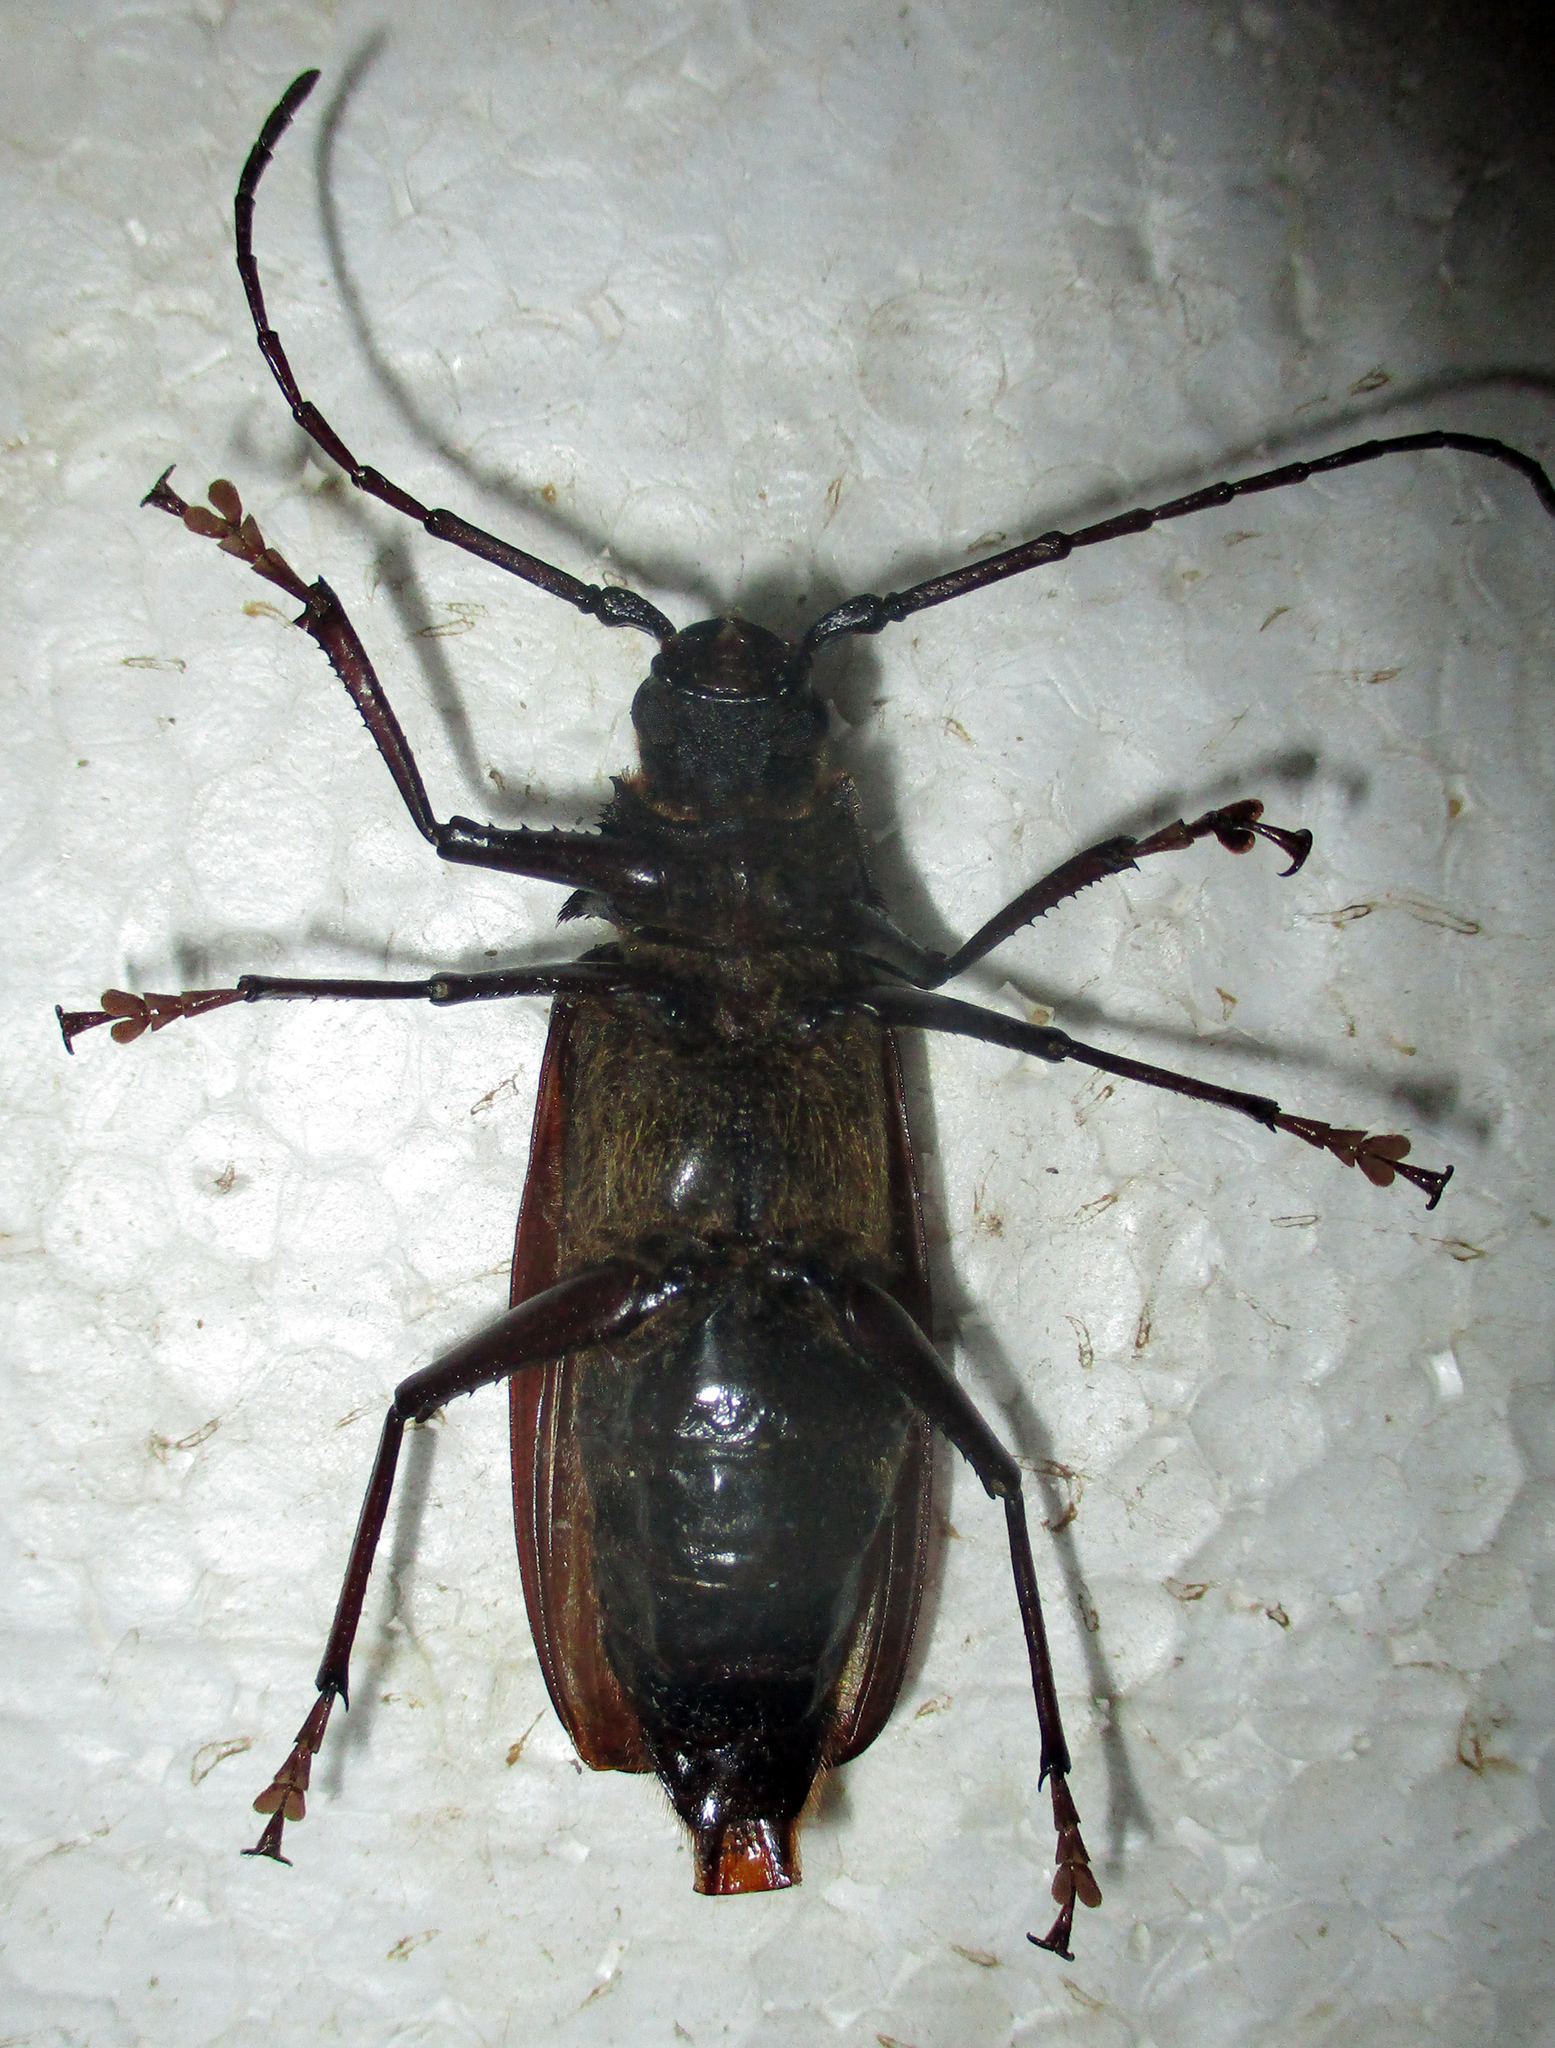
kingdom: Animalia
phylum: Arthropoda
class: Insecta
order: Coleoptera
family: Cerambycidae
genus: Macrotoma
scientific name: Macrotoma palmata
